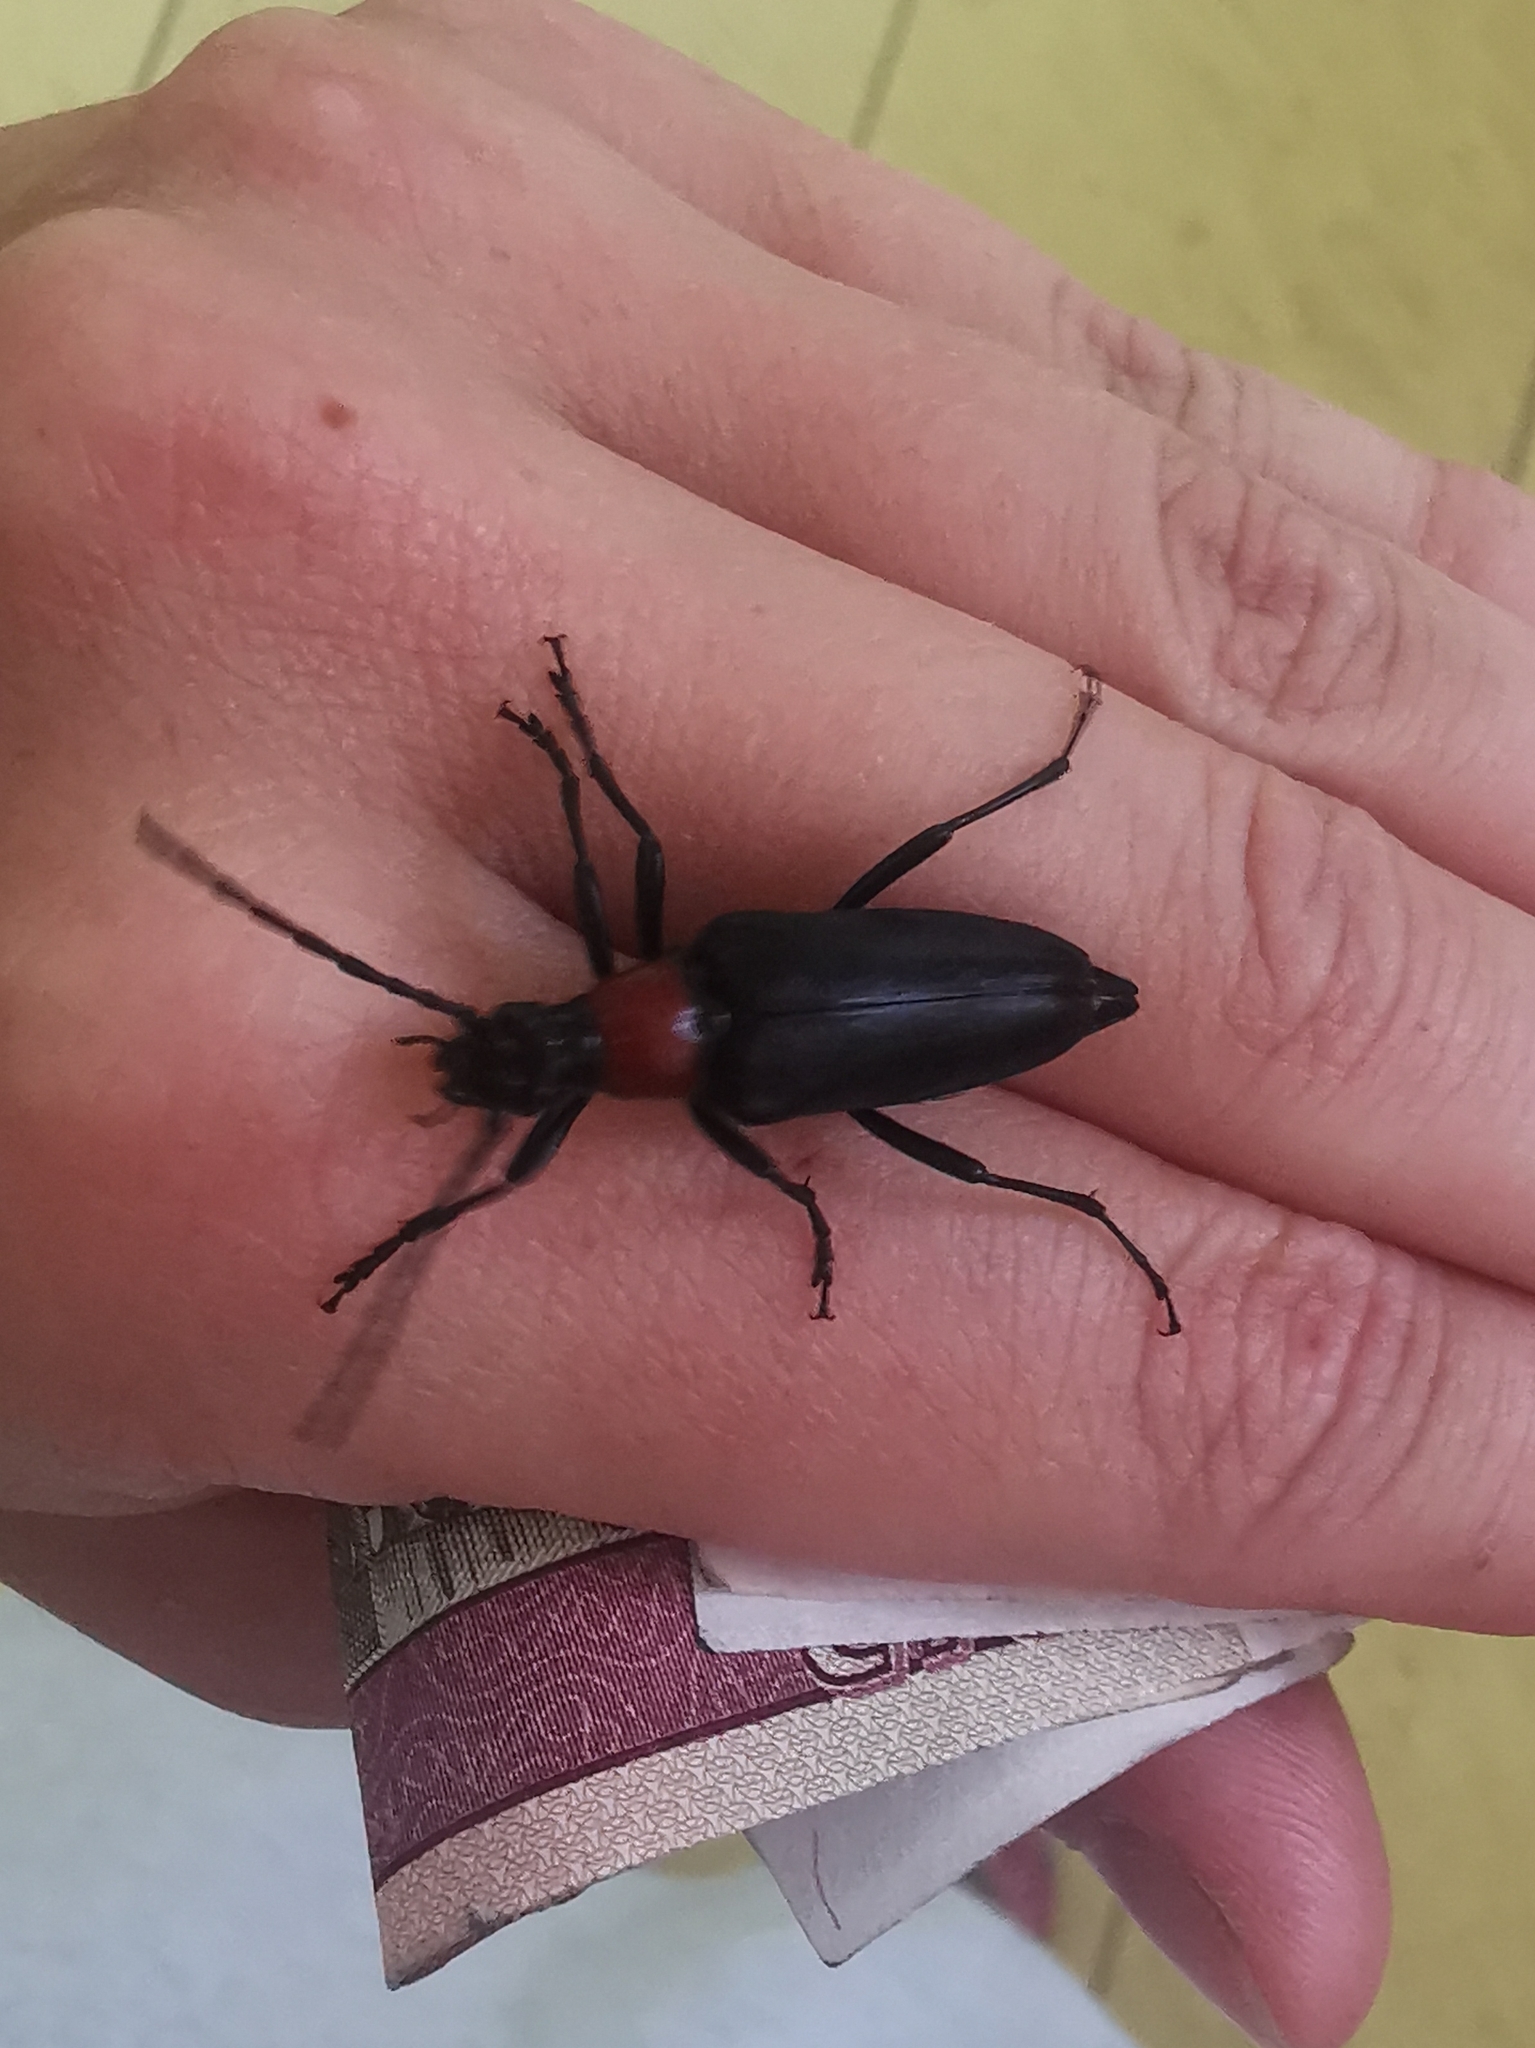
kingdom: Animalia
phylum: Arthropoda
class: Insecta
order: Coleoptera
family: Cerambycidae
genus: Leptura
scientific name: Leptura thoracica
